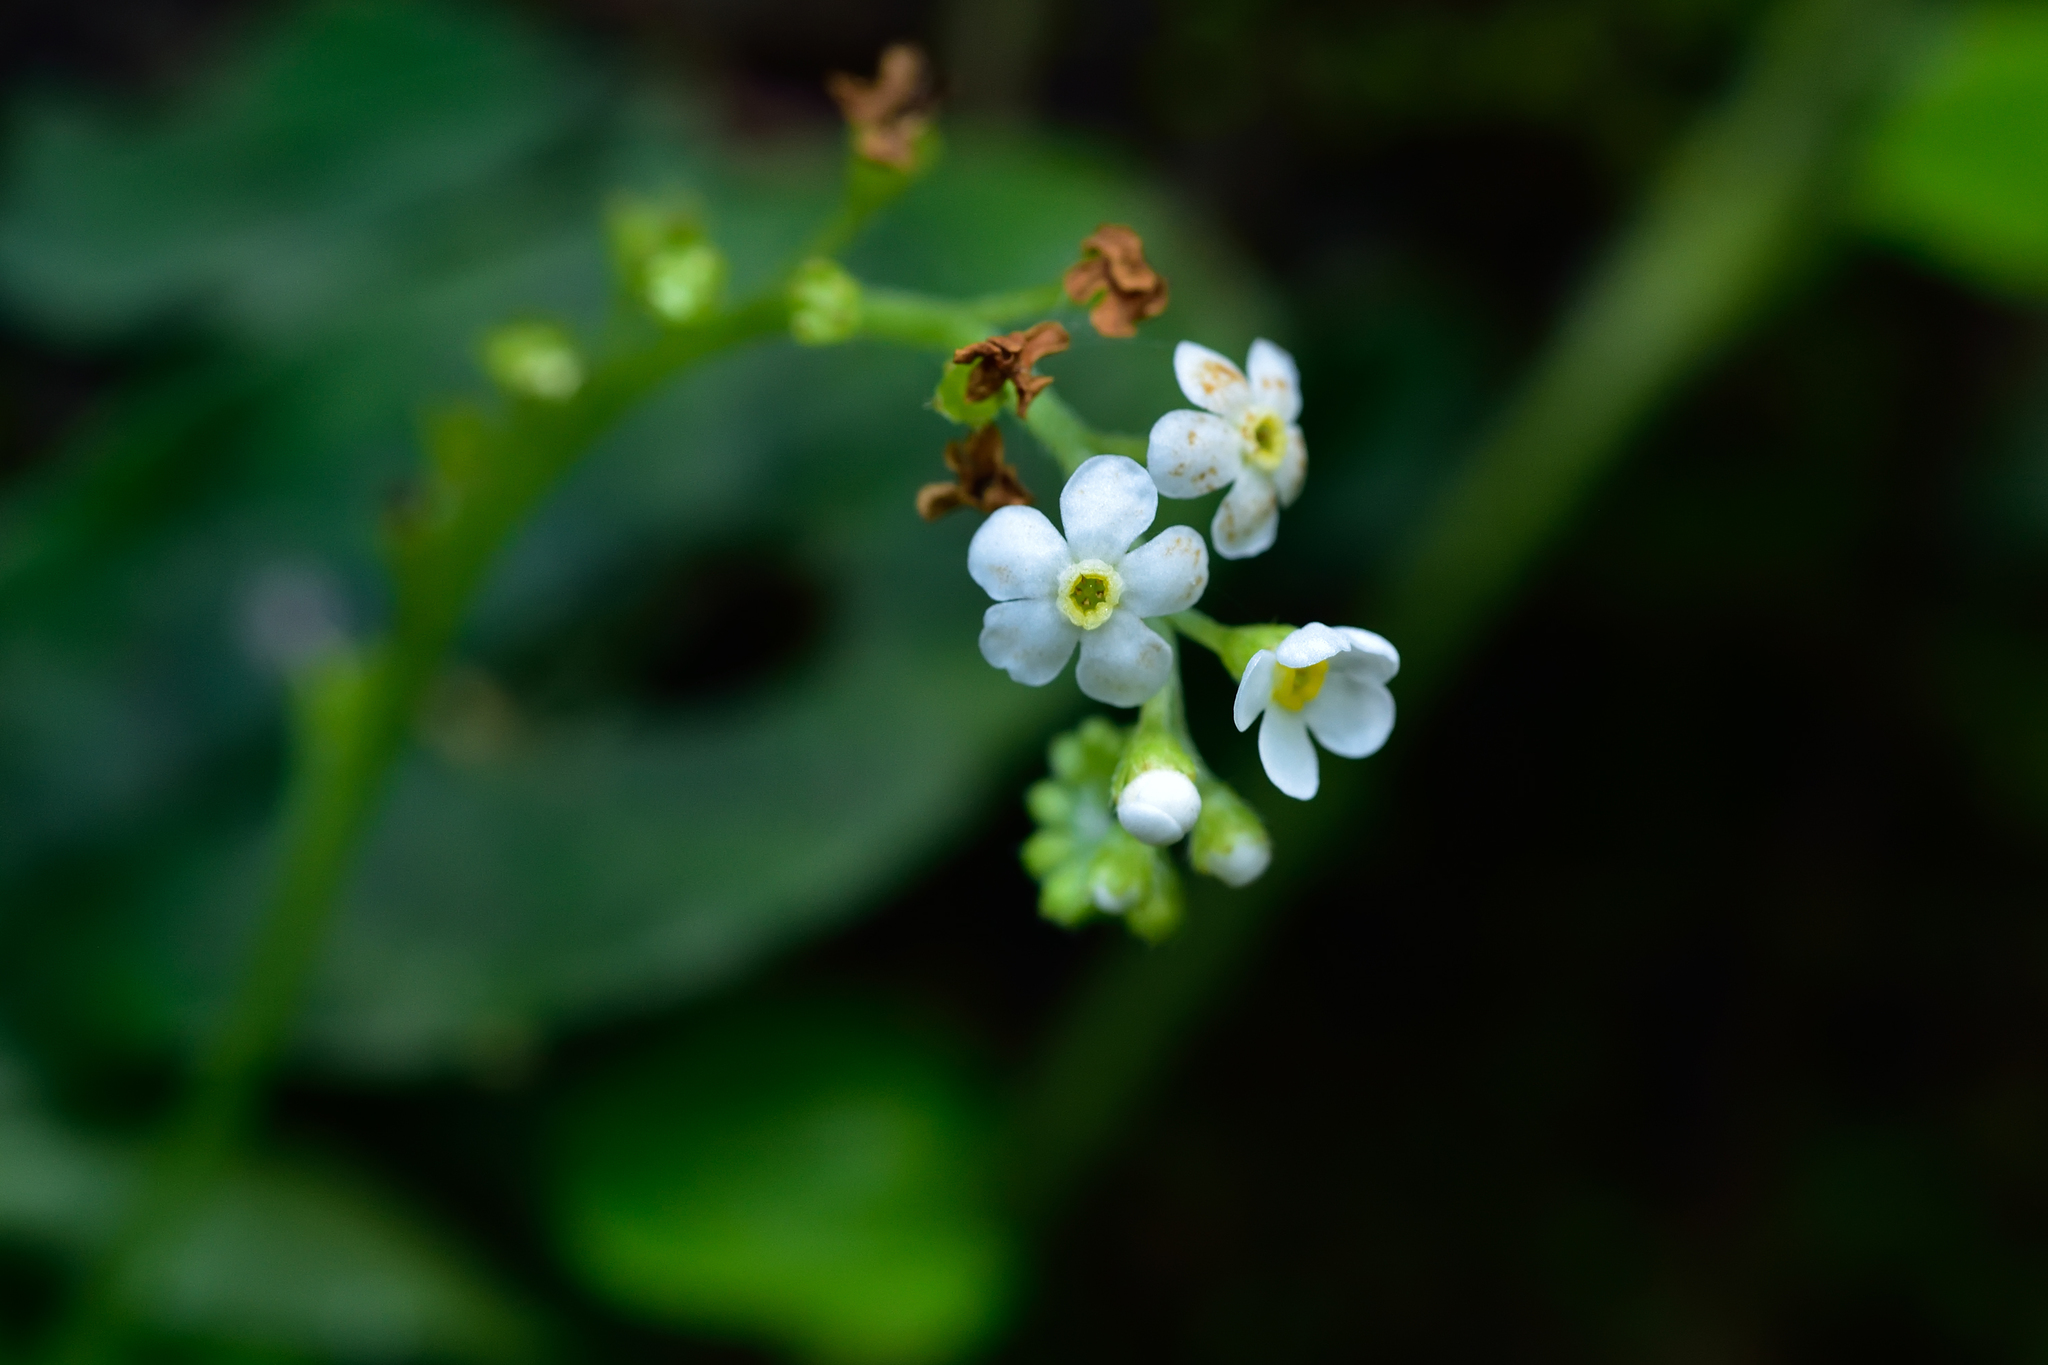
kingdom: Plantae
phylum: Tracheophyta
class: Magnoliopsida
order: Boraginales
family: Boraginaceae
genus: Trigonotis
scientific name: Trigonotis formosana
